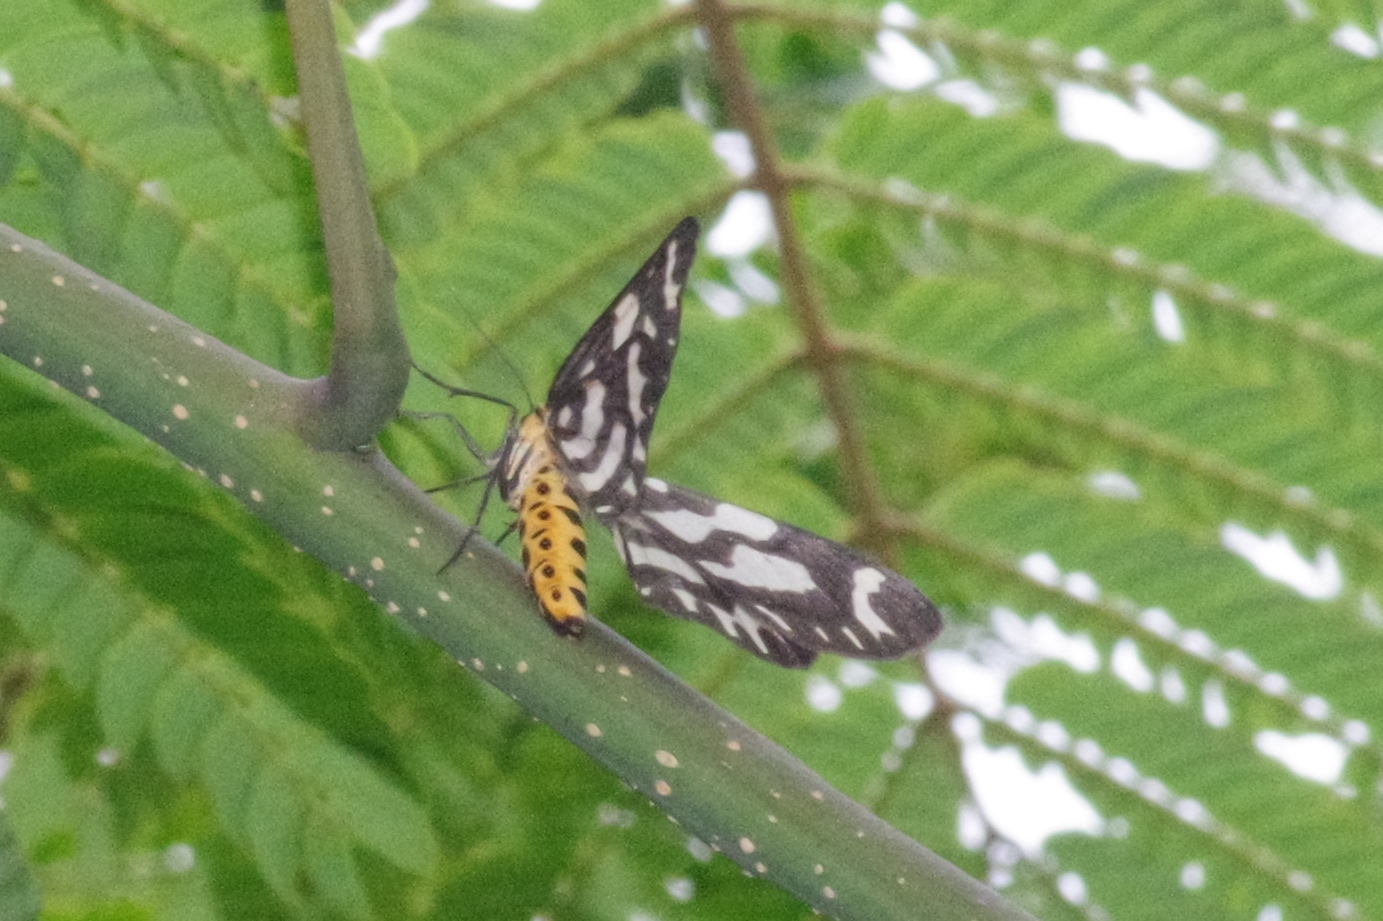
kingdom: Animalia
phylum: Arthropoda
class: Insecta
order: Lepidoptera
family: Geometridae
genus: Cystidia
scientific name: Cystidia couaggaria
